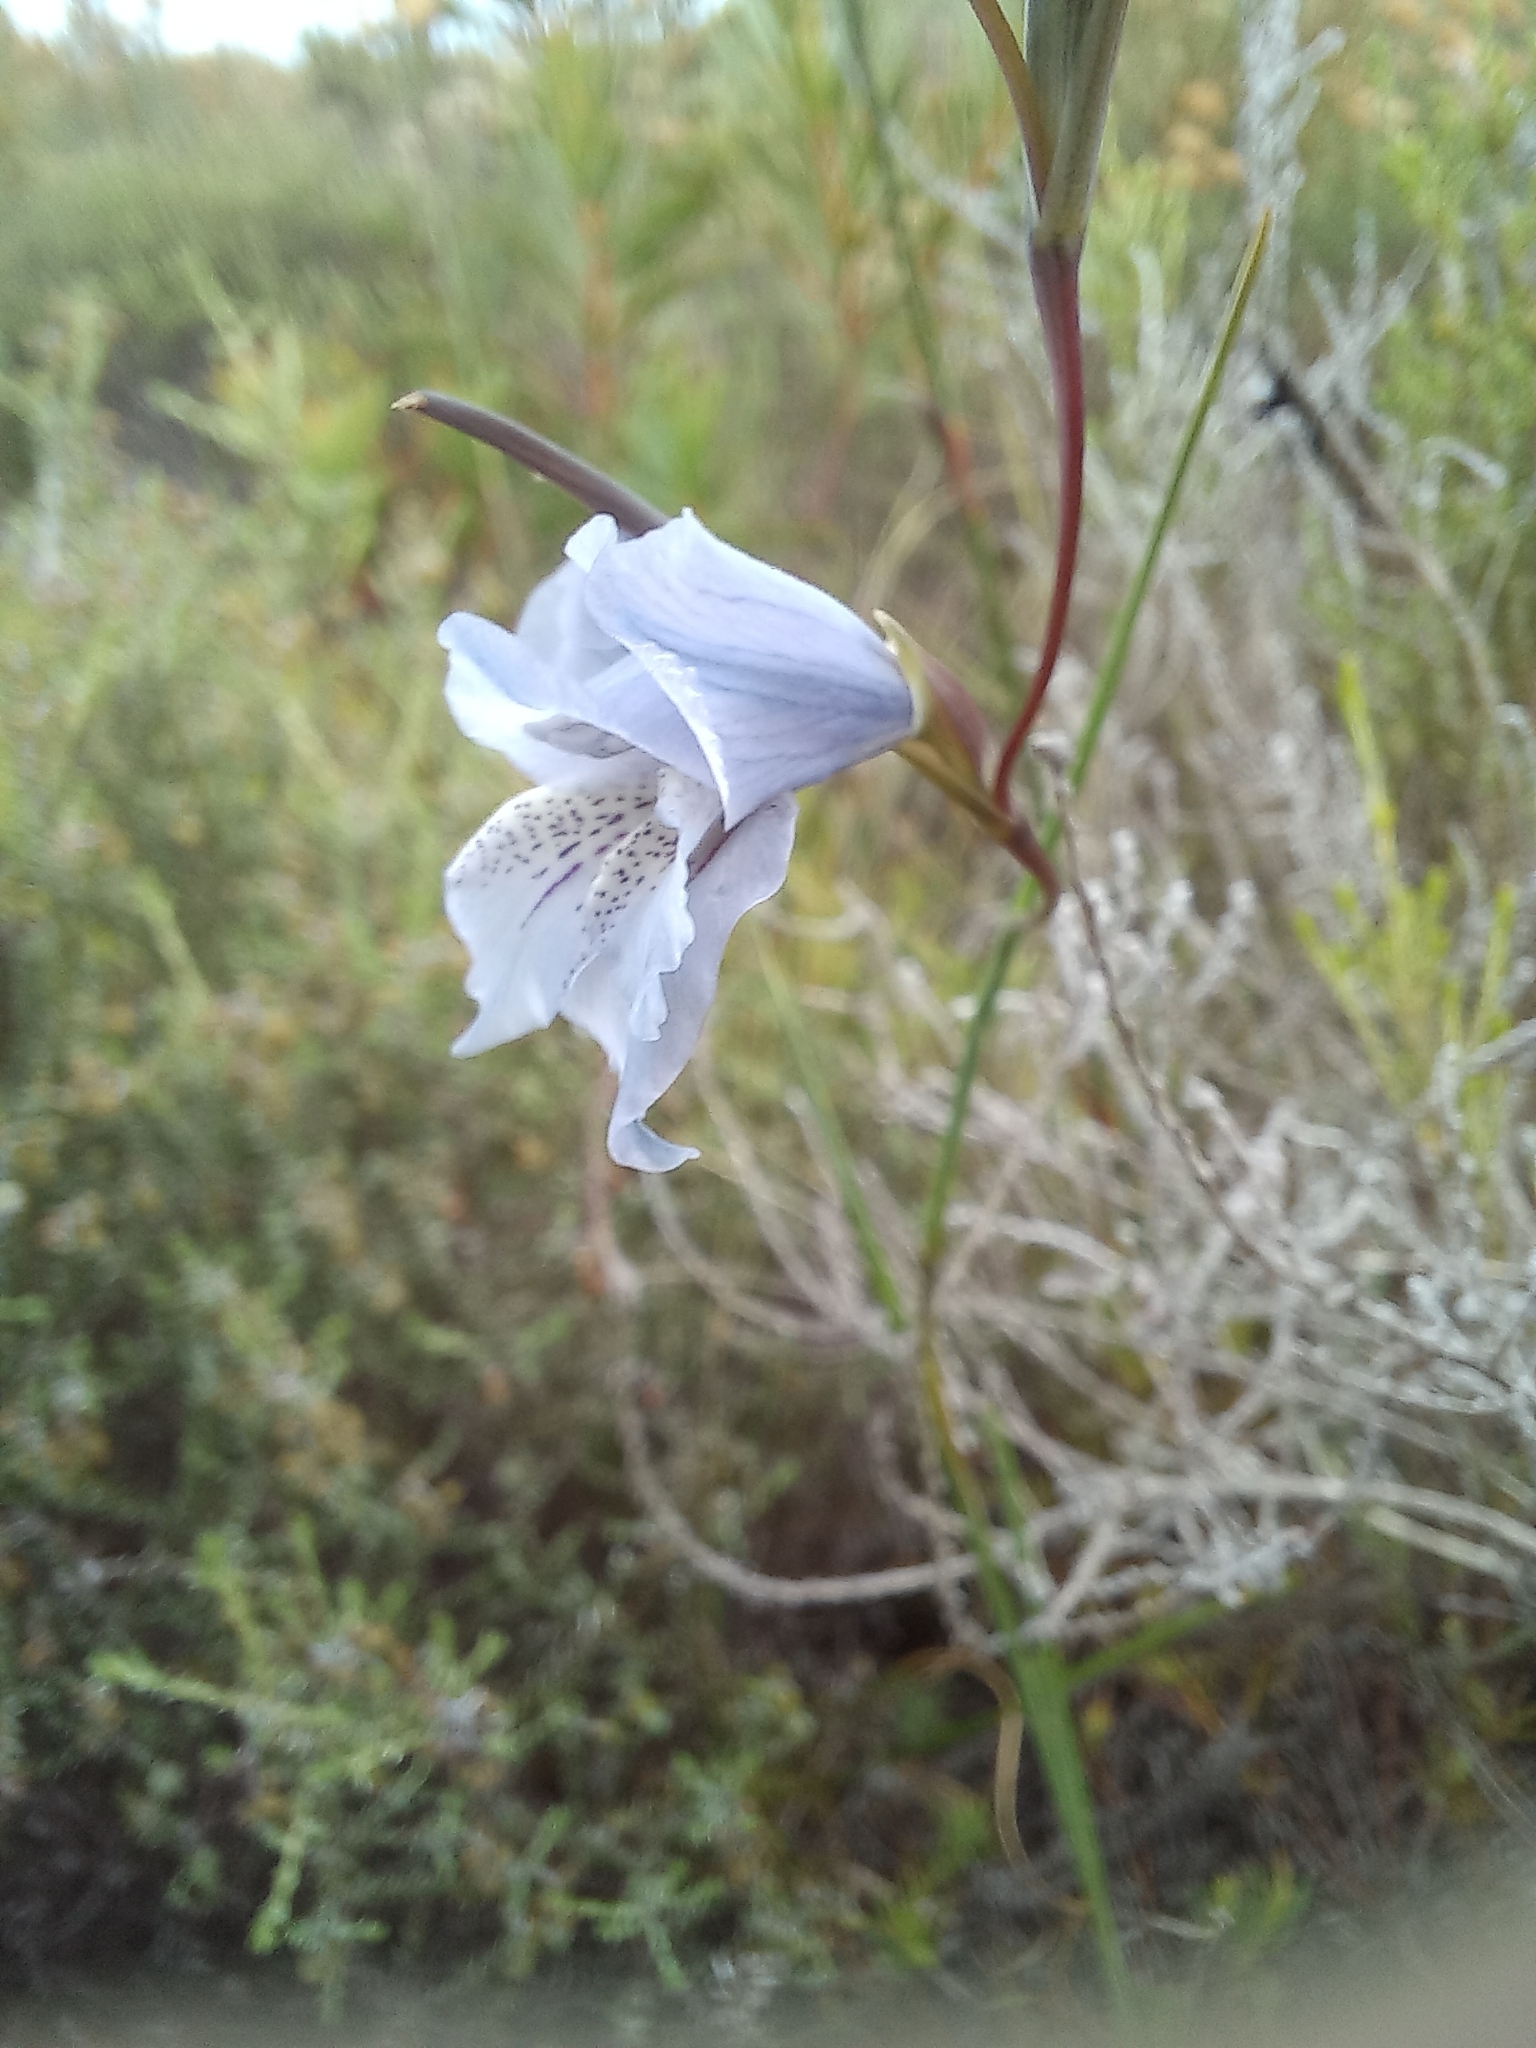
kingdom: Plantae
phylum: Tracheophyta
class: Liliopsida
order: Asparagales
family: Iridaceae
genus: Gladiolus
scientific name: Gladiolus gracilis
